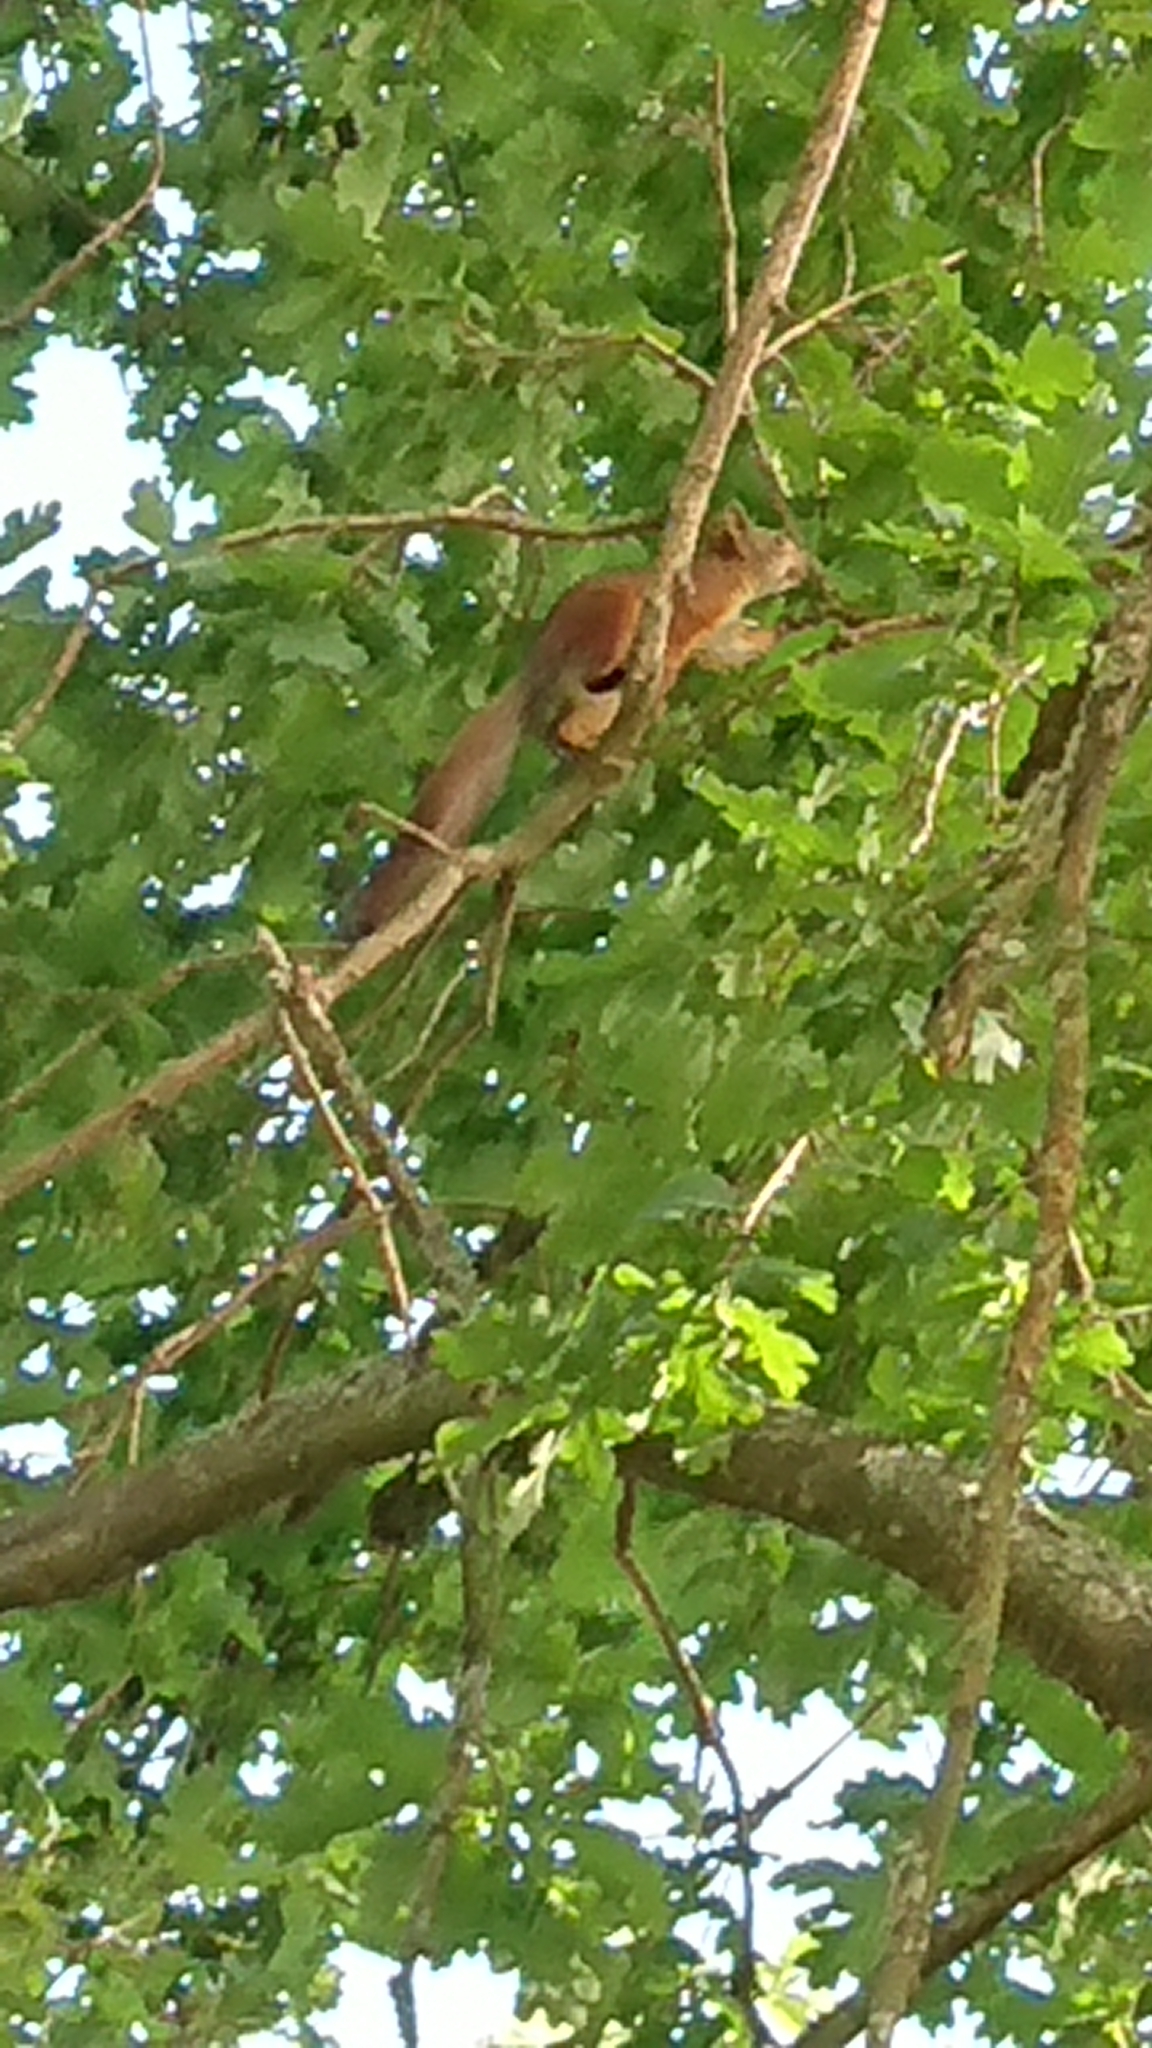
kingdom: Animalia
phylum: Chordata
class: Mammalia
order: Rodentia
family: Sciuridae
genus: Sciurus
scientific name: Sciurus vulgaris
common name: Eurasian red squirrel
